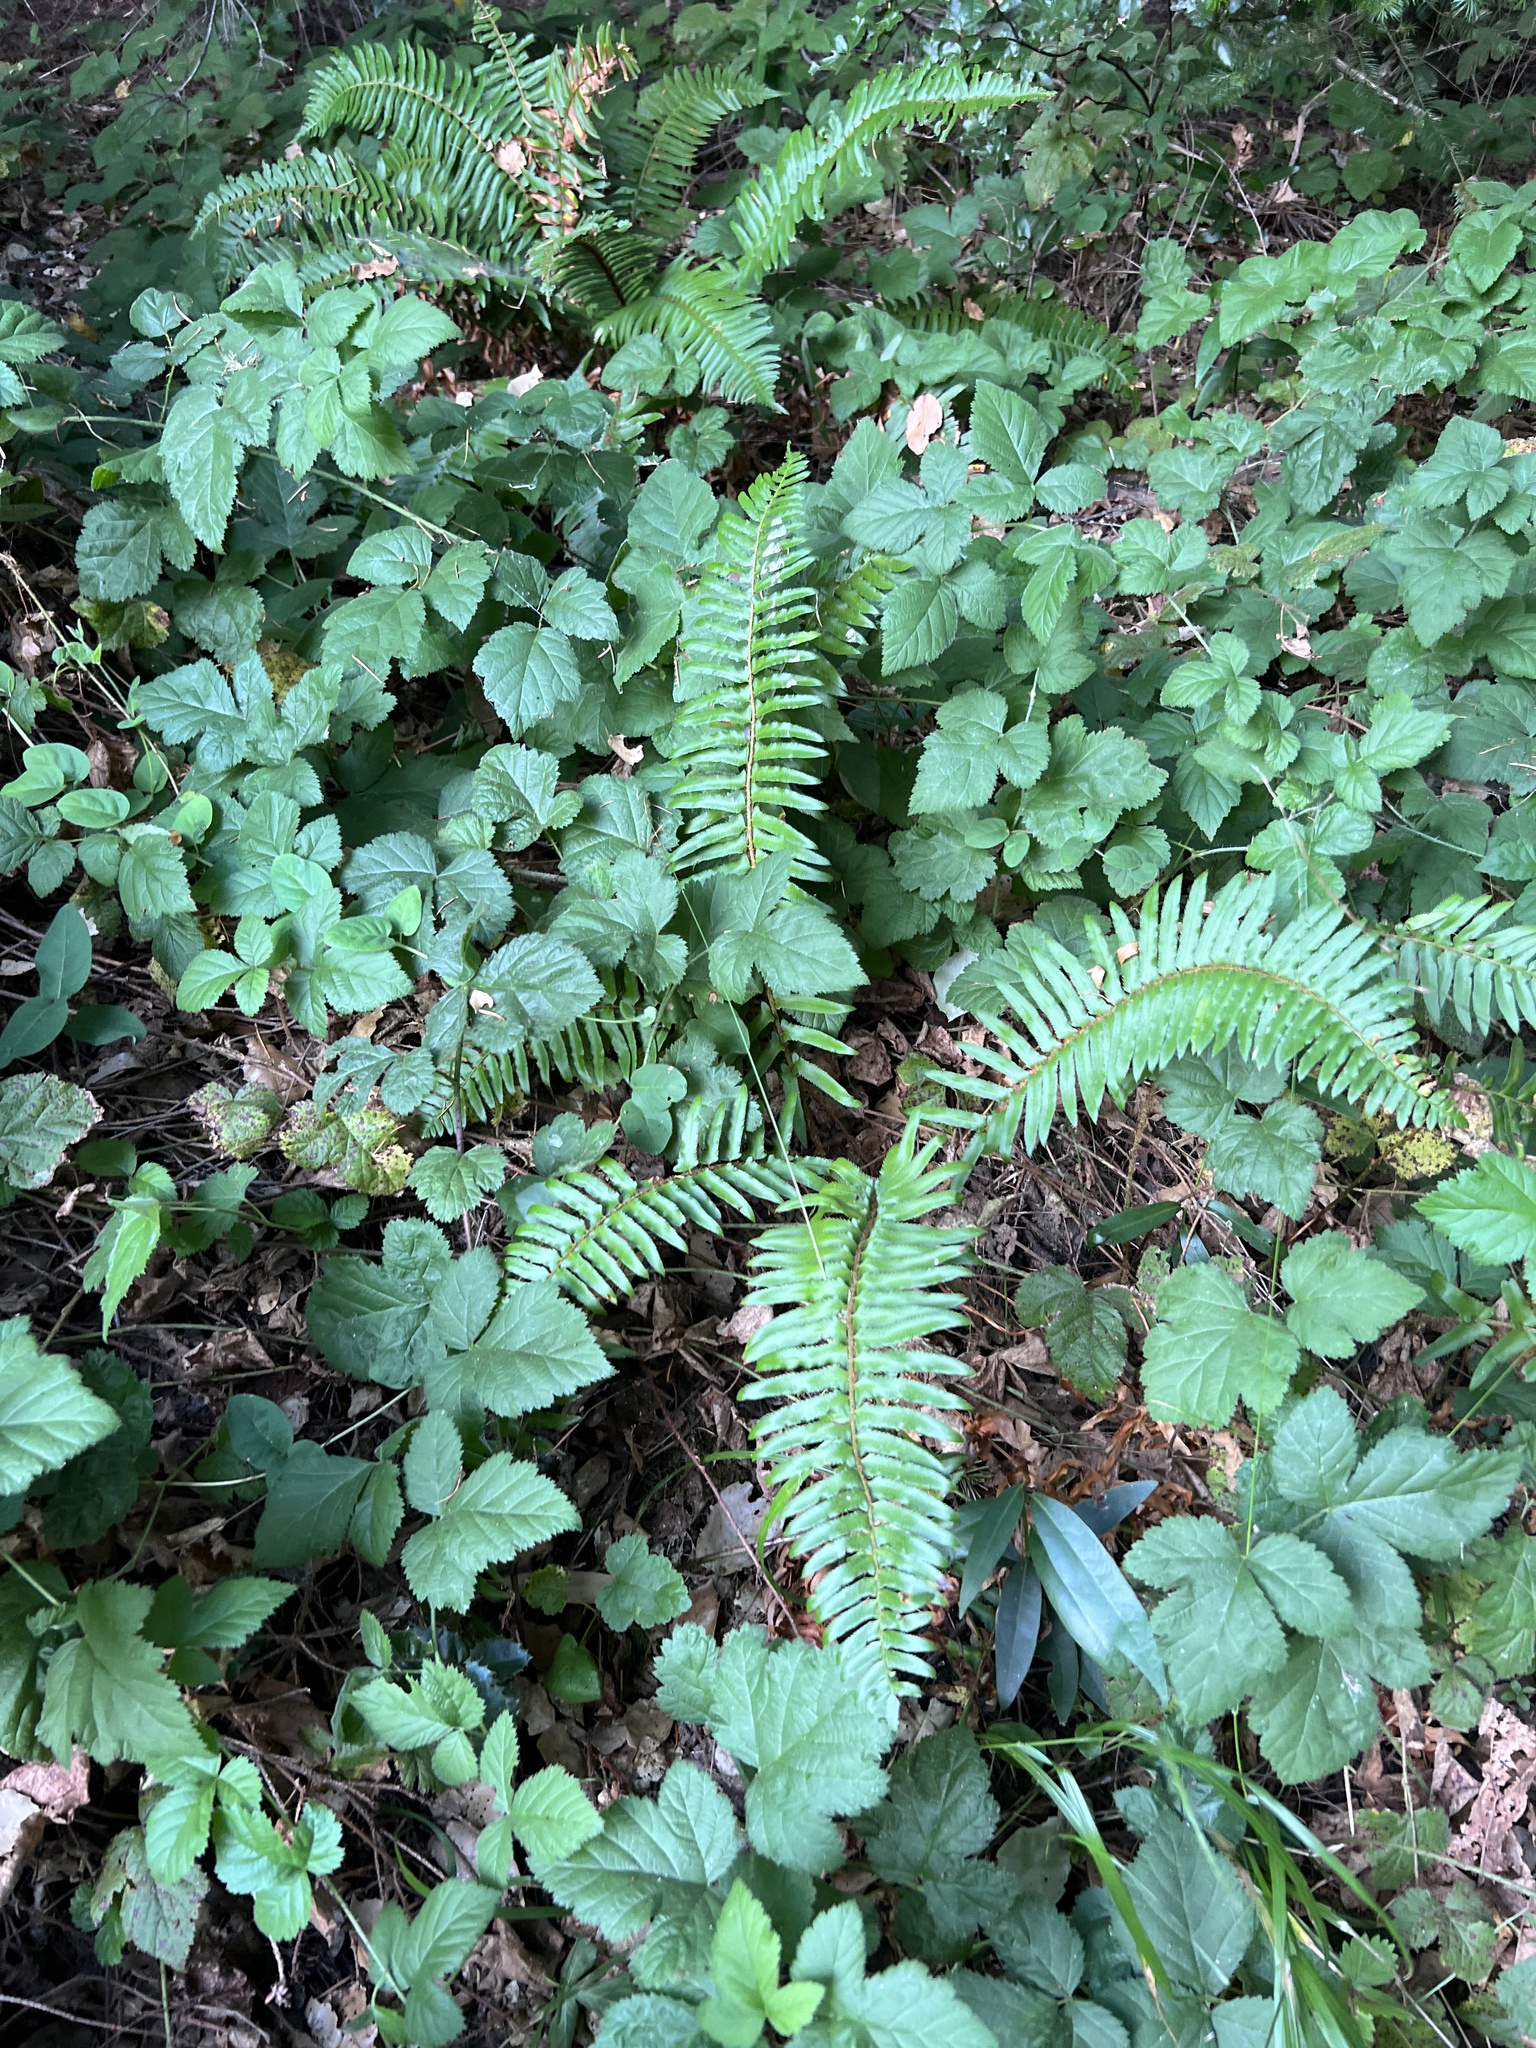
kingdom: Plantae
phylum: Tracheophyta
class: Polypodiopsida
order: Polypodiales
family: Dryopteridaceae
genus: Polystichum
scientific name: Polystichum munitum
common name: Western sword-fern
